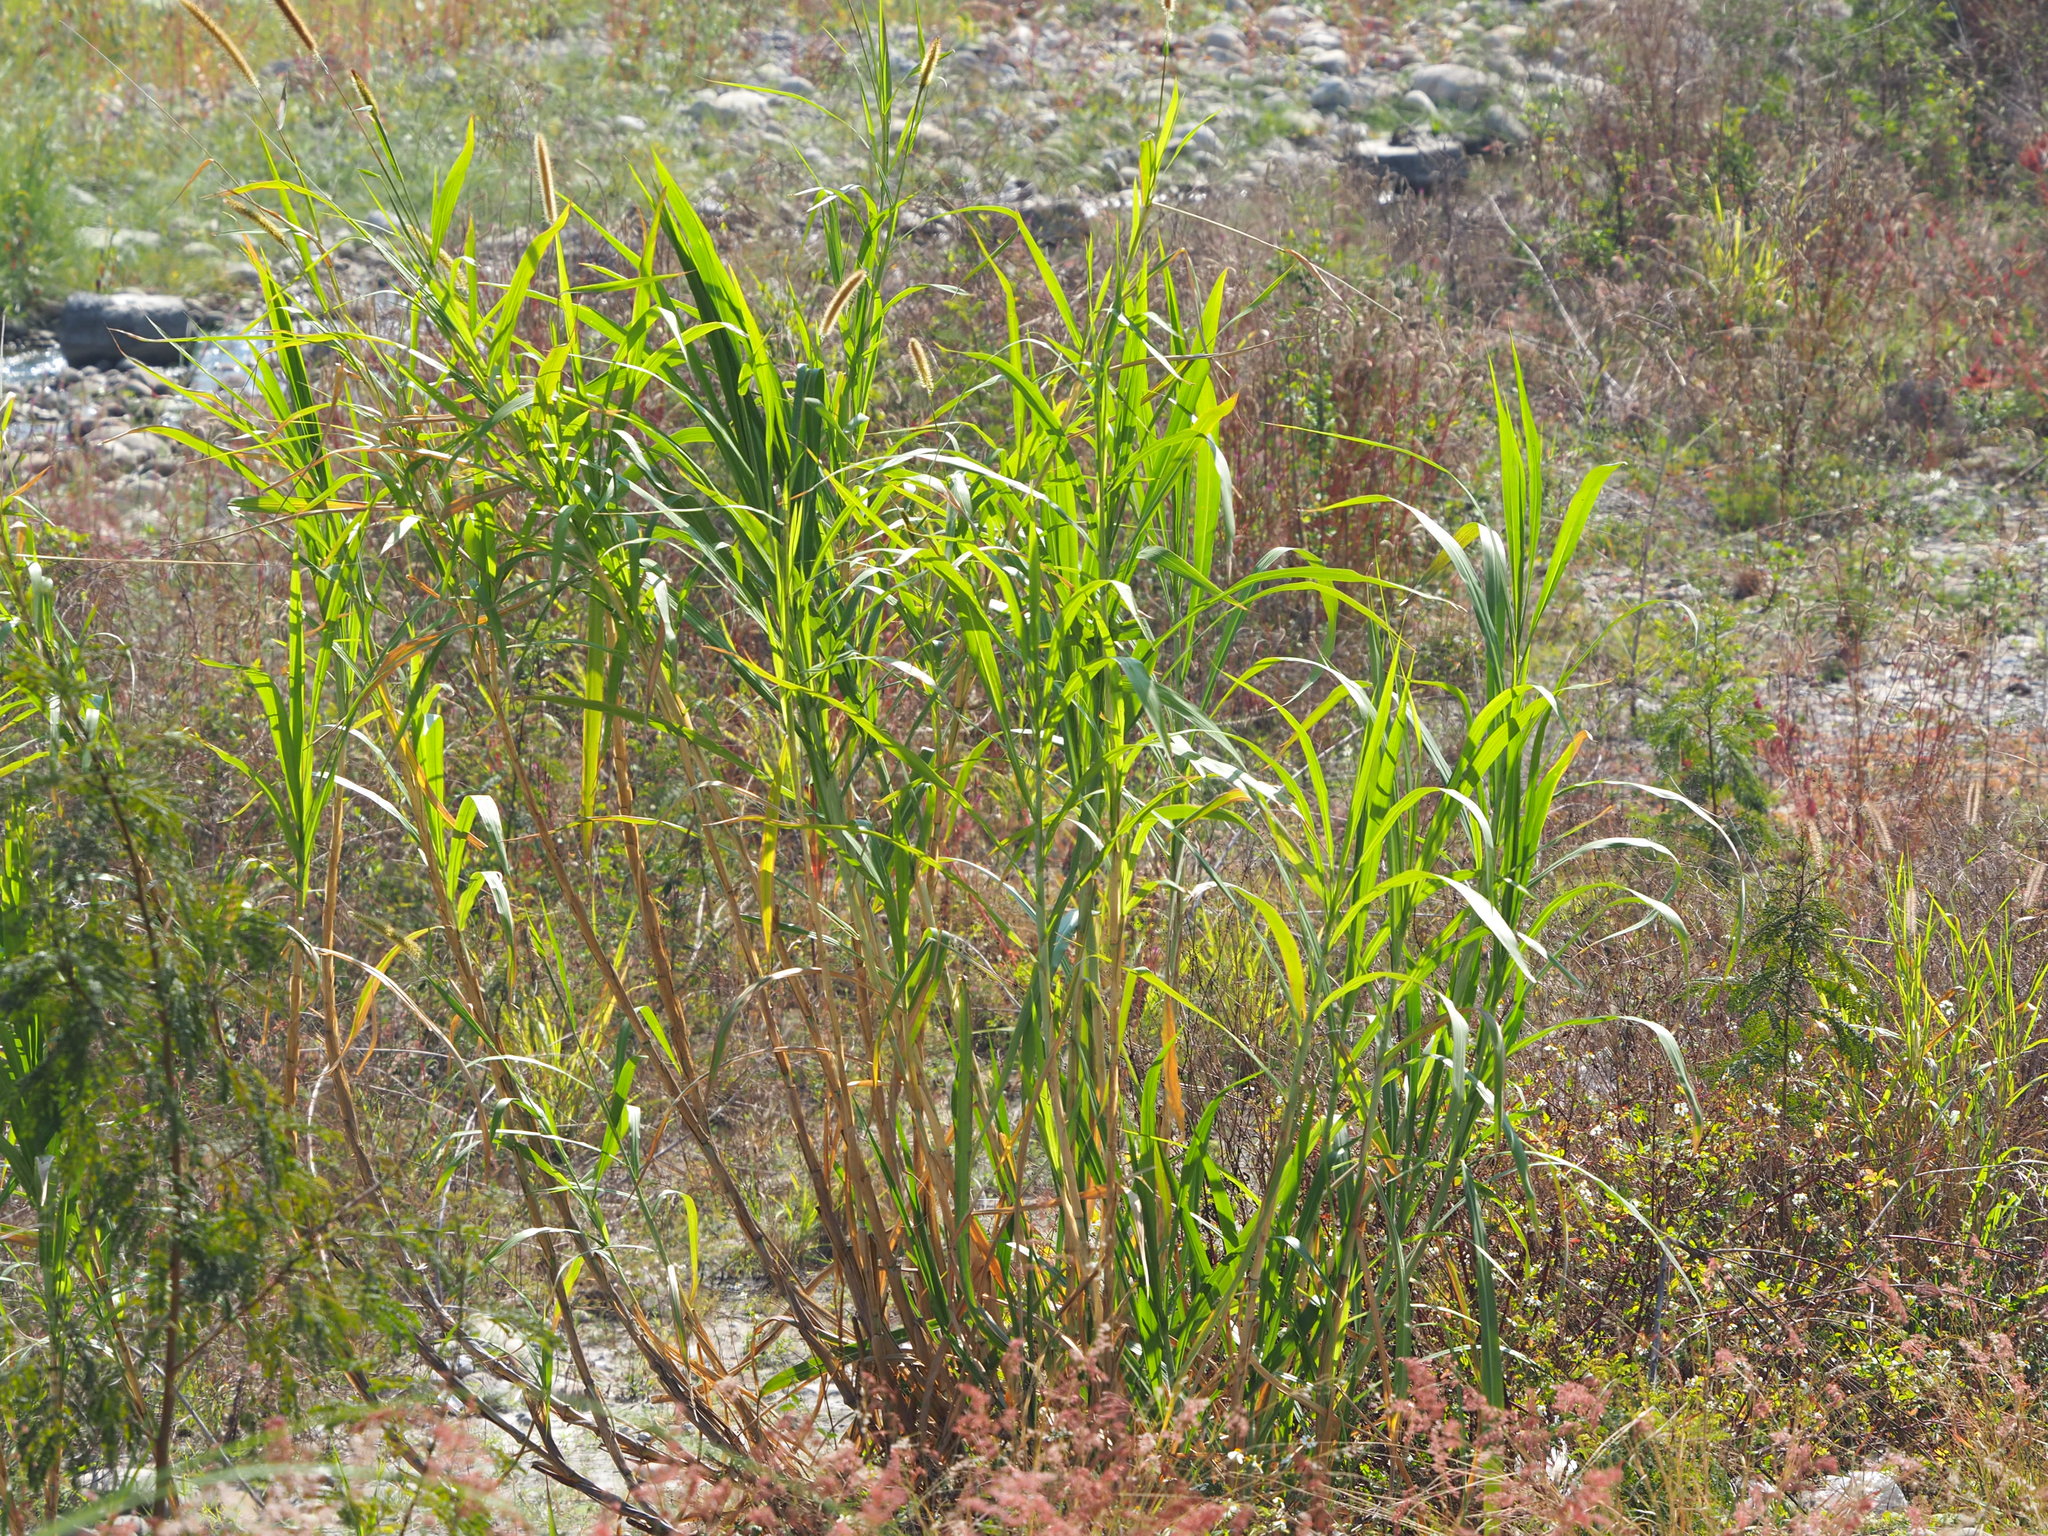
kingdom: Plantae
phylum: Tracheophyta
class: Liliopsida
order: Poales
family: Poaceae
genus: Cenchrus
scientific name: Cenchrus purpureus
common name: Elephant grass
